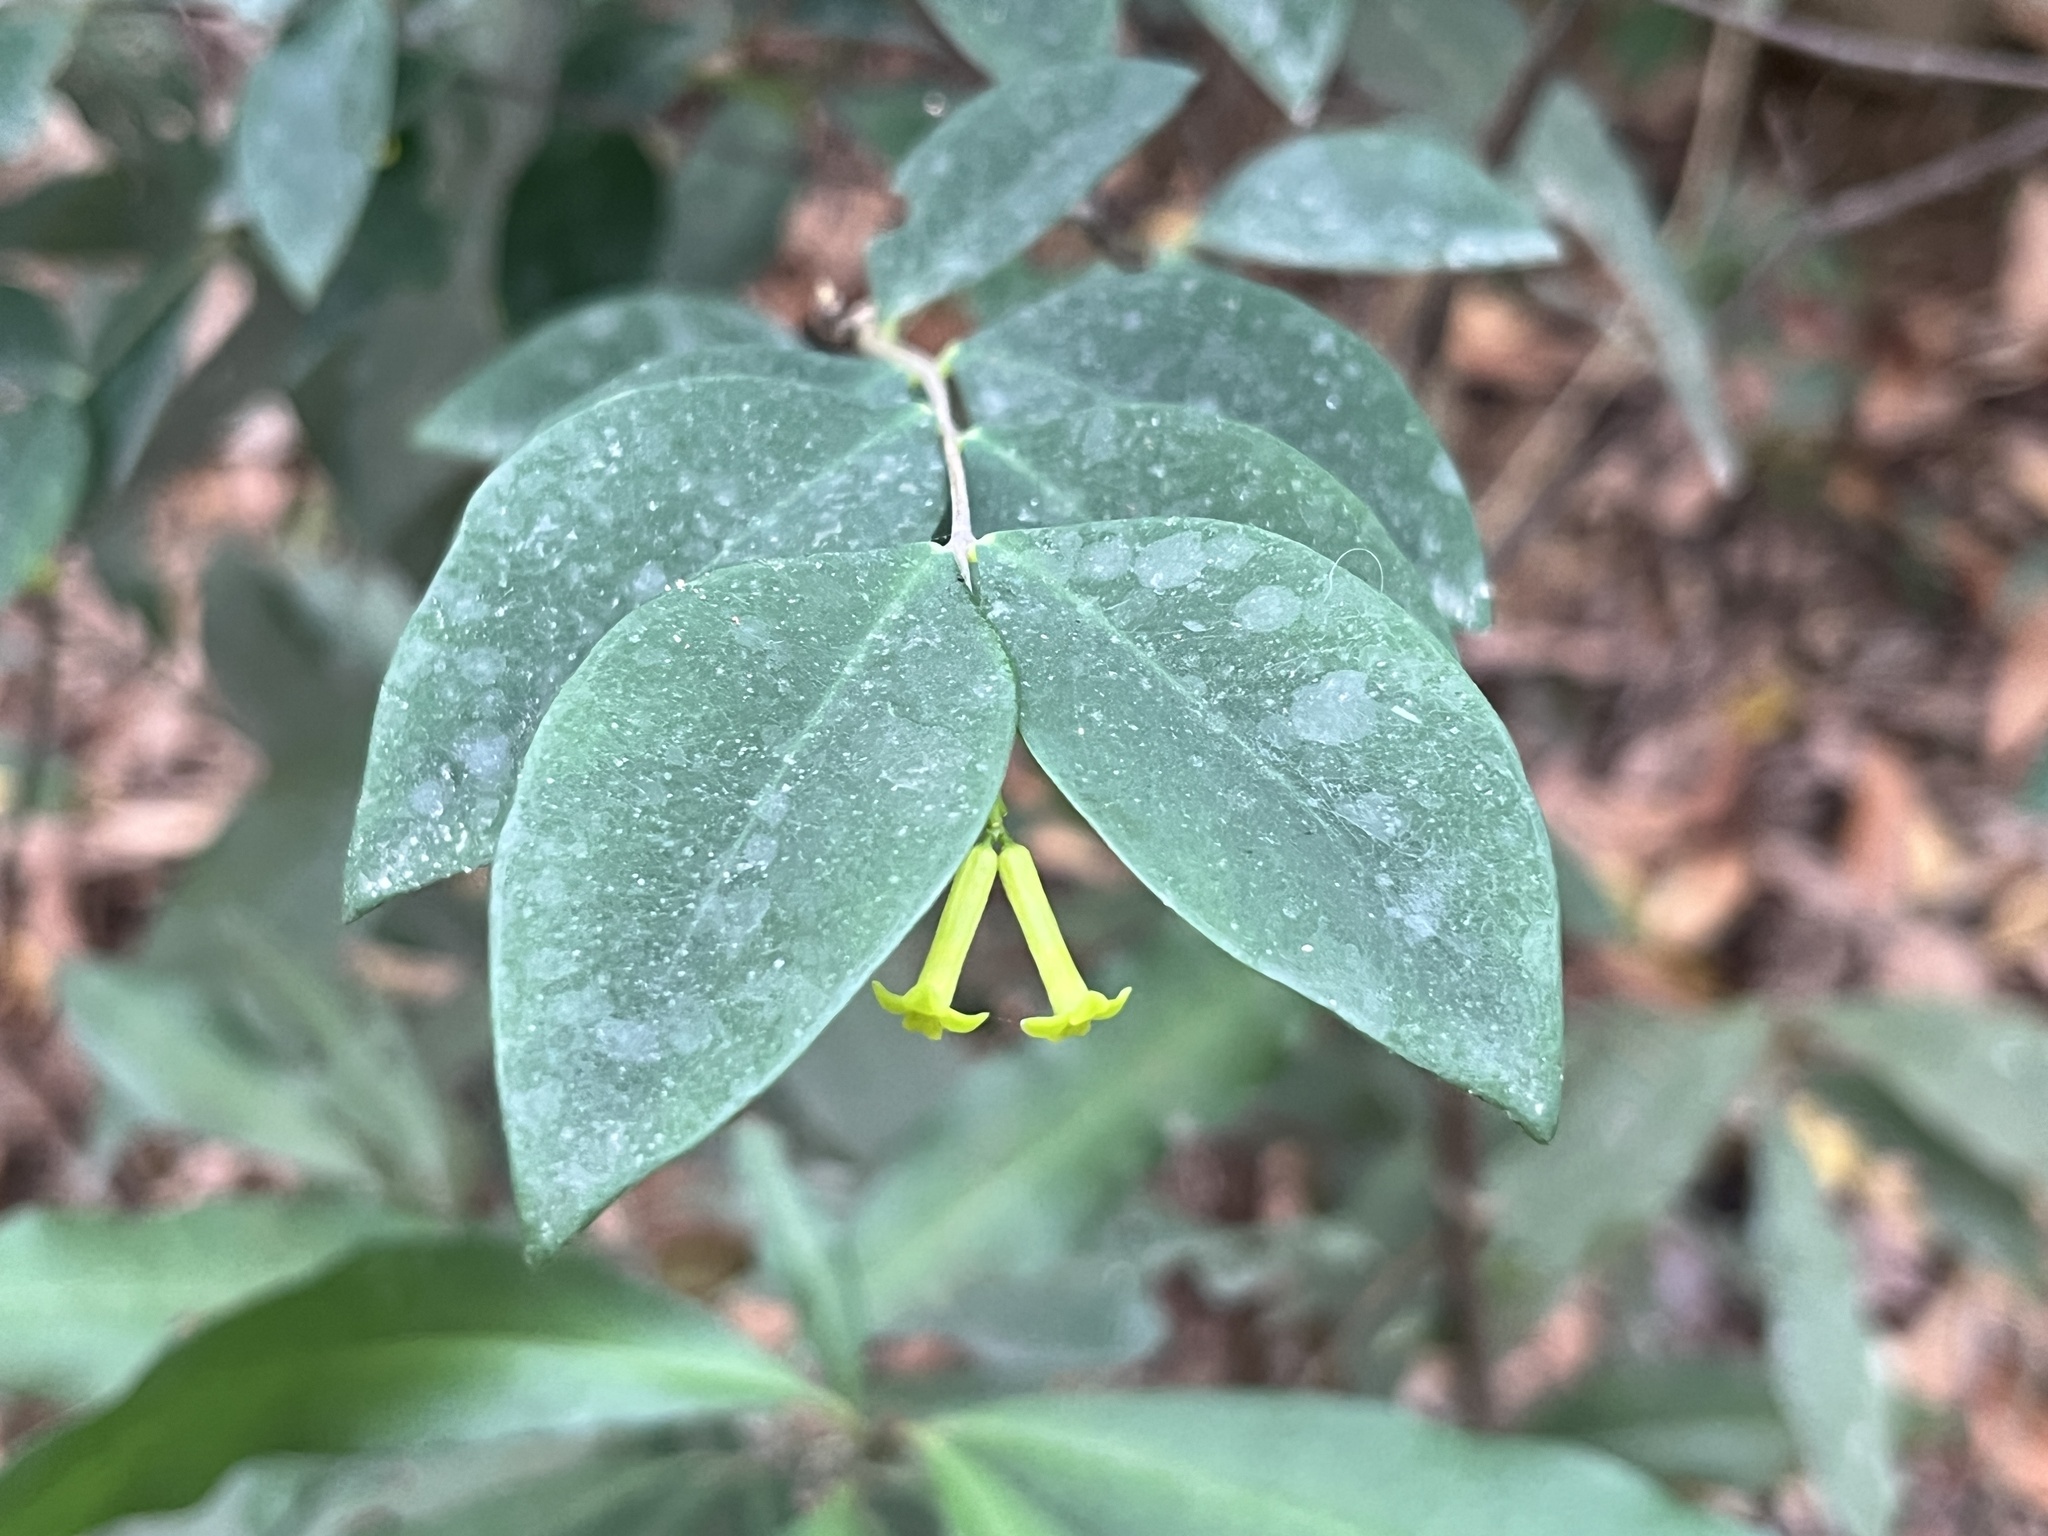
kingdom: Plantae
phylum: Tracheophyta
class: Magnoliopsida
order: Malvales
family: Thymelaeaceae
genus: Wikstroemia
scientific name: Wikstroemia nutans
